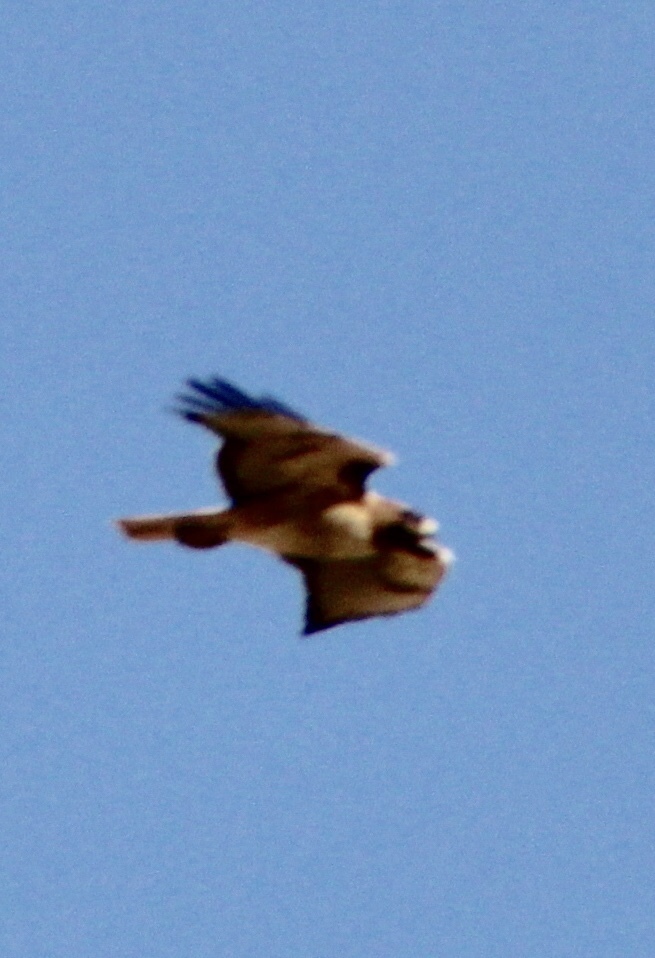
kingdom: Animalia
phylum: Chordata
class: Aves
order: Accipitriformes
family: Accipitridae
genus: Buteo
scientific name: Buteo jamaicensis
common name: Red-tailed hawk
